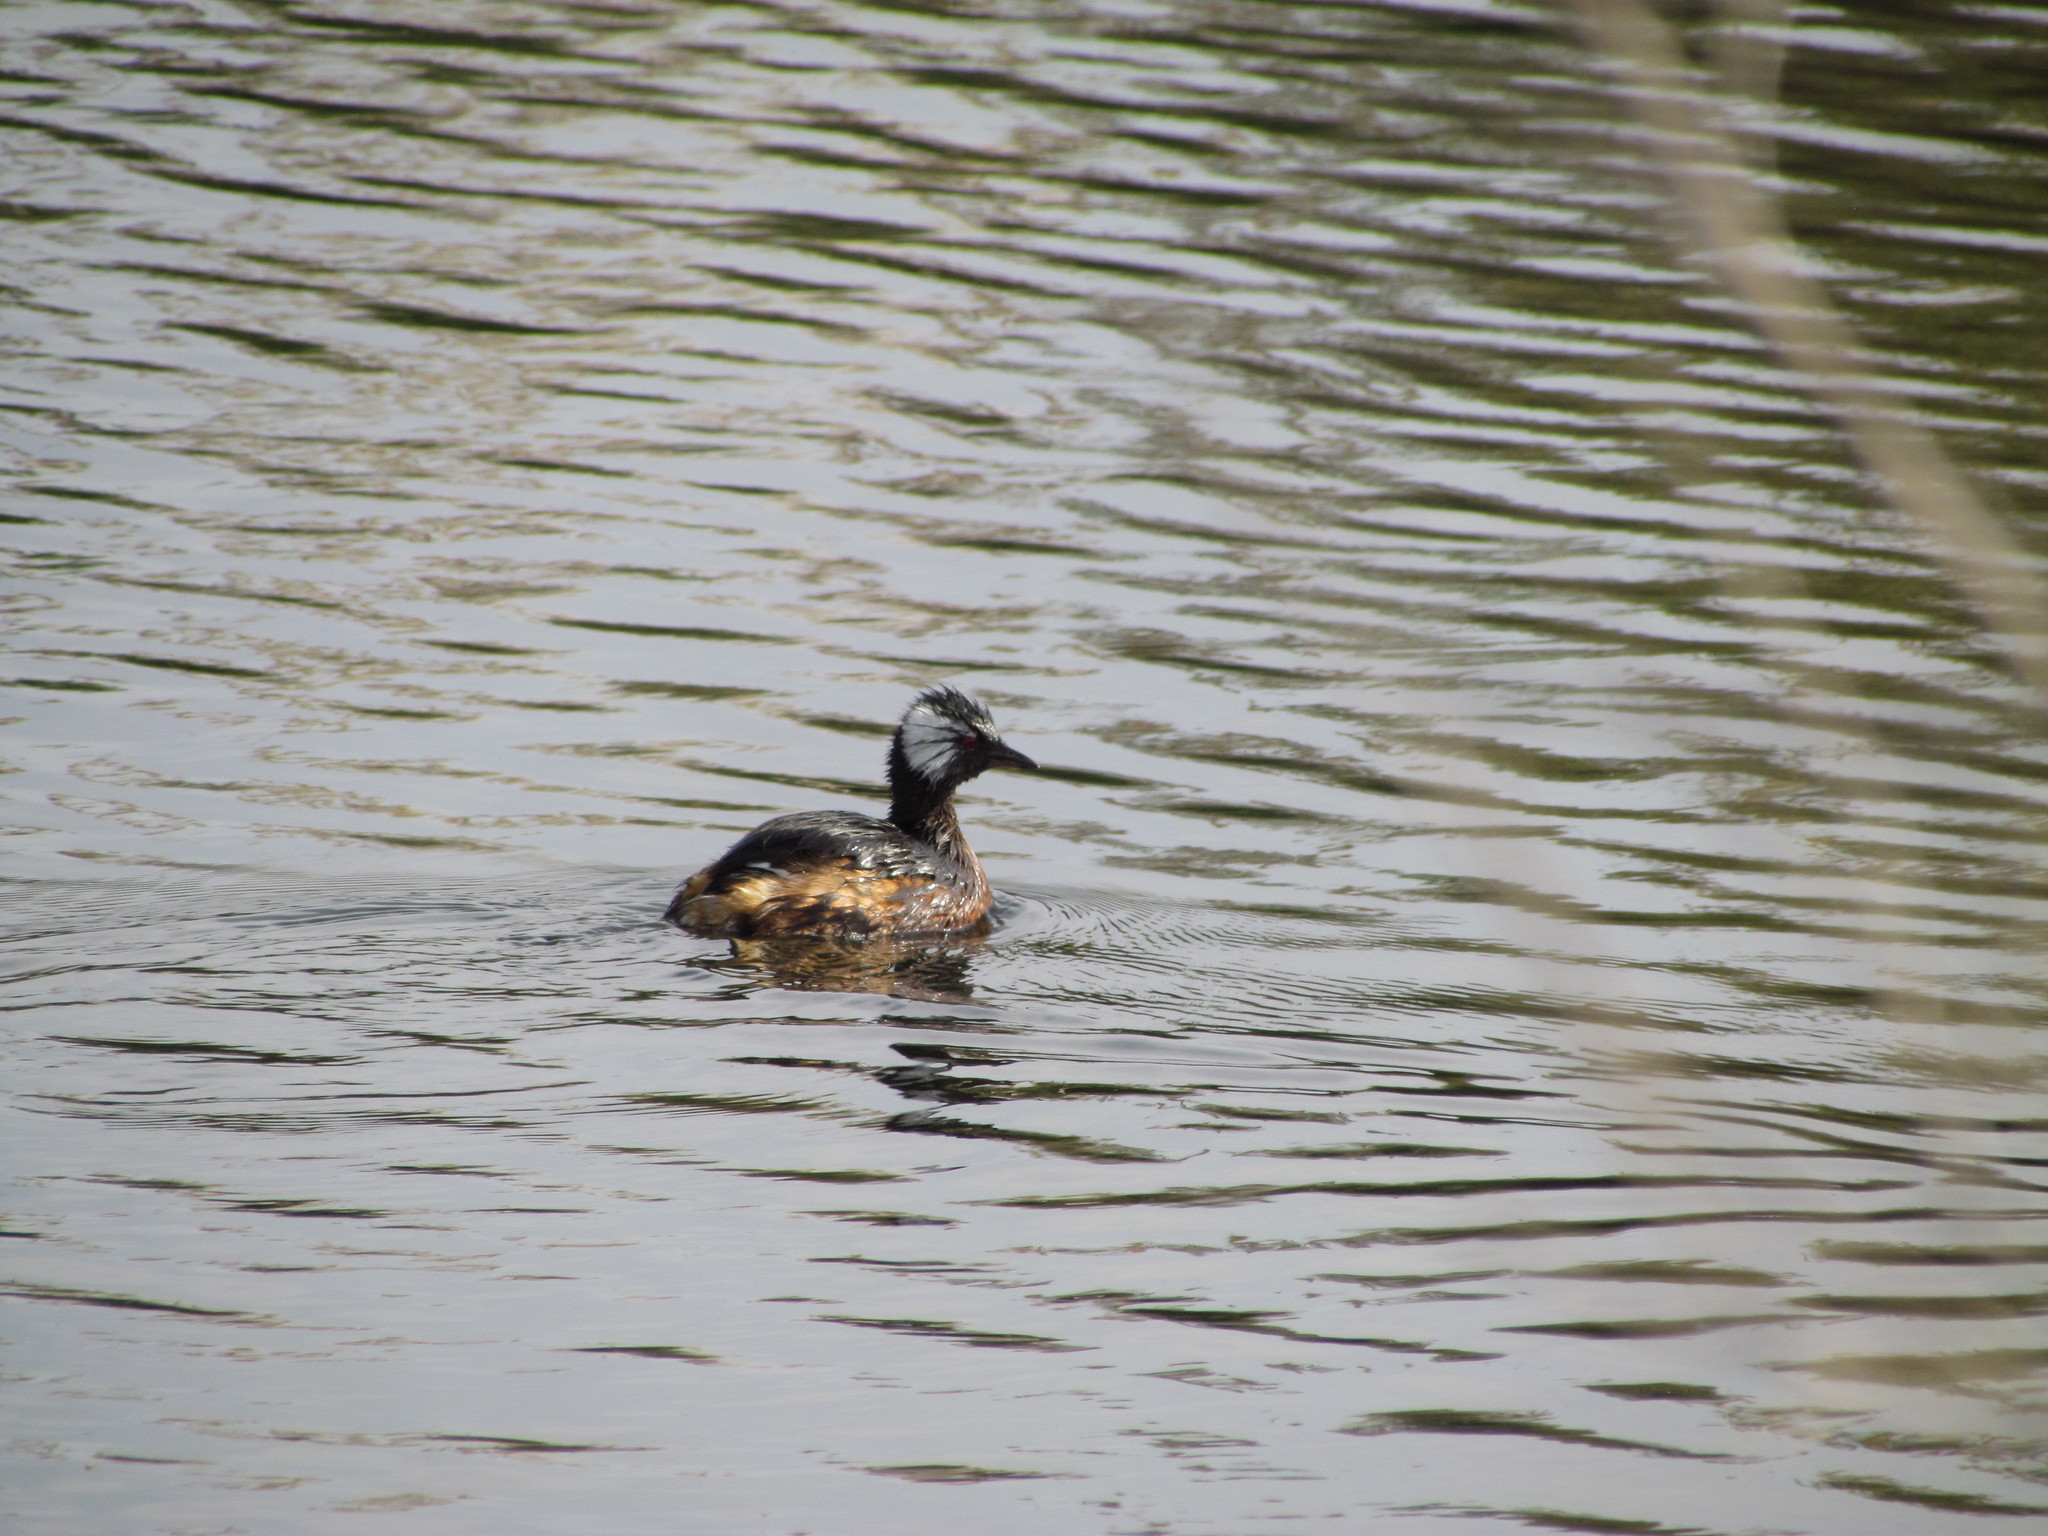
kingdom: Animalia
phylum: Chordata
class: Aves
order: Podicipediformes
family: Podicipedidae
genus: Rollandia
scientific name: Rollandia rolland
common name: White-tufted grebe
